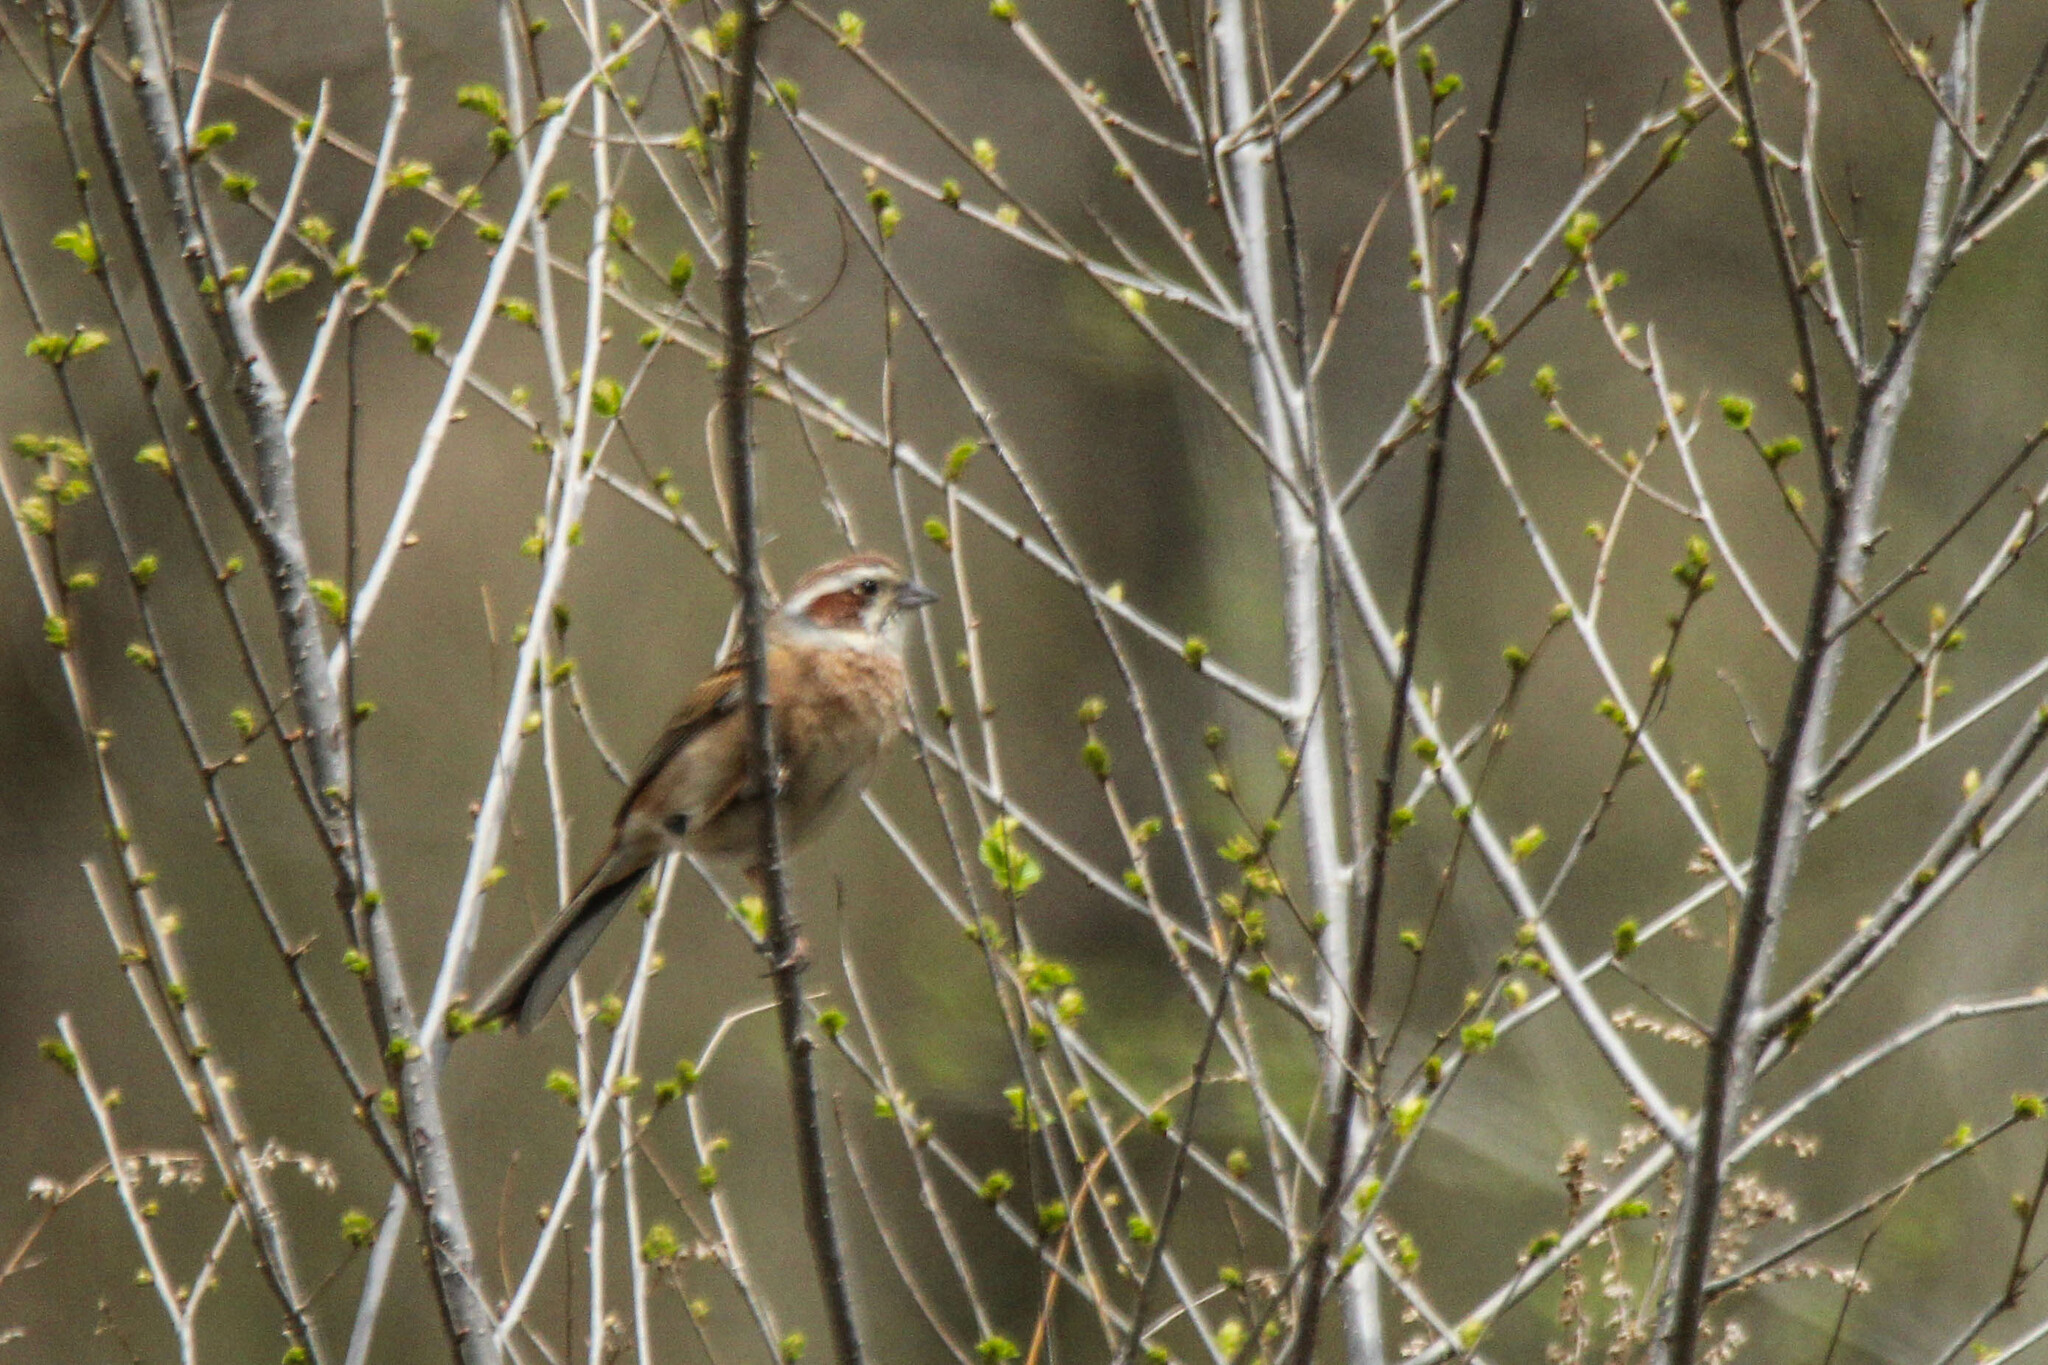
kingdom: Animalia
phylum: Chordata
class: Aves
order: Passeriformes
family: Emberizidae
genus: Emberiza
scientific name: Emberiza cioides
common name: Meadow bunting
